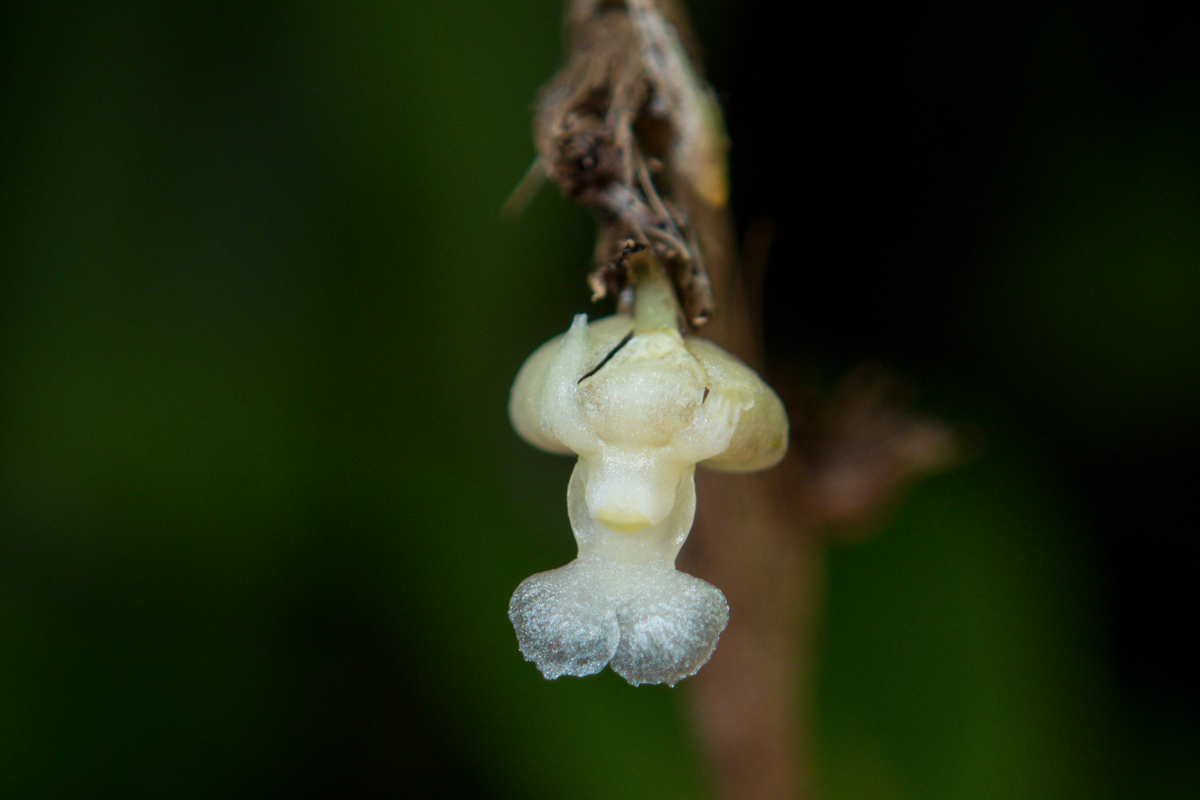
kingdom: Plantae
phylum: Tracheophyta
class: Liliopsida
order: Asparagales
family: Orchidaceae
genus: Dendrobium
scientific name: Dendrobium aloifolium
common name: Aloe-like dendrobium
